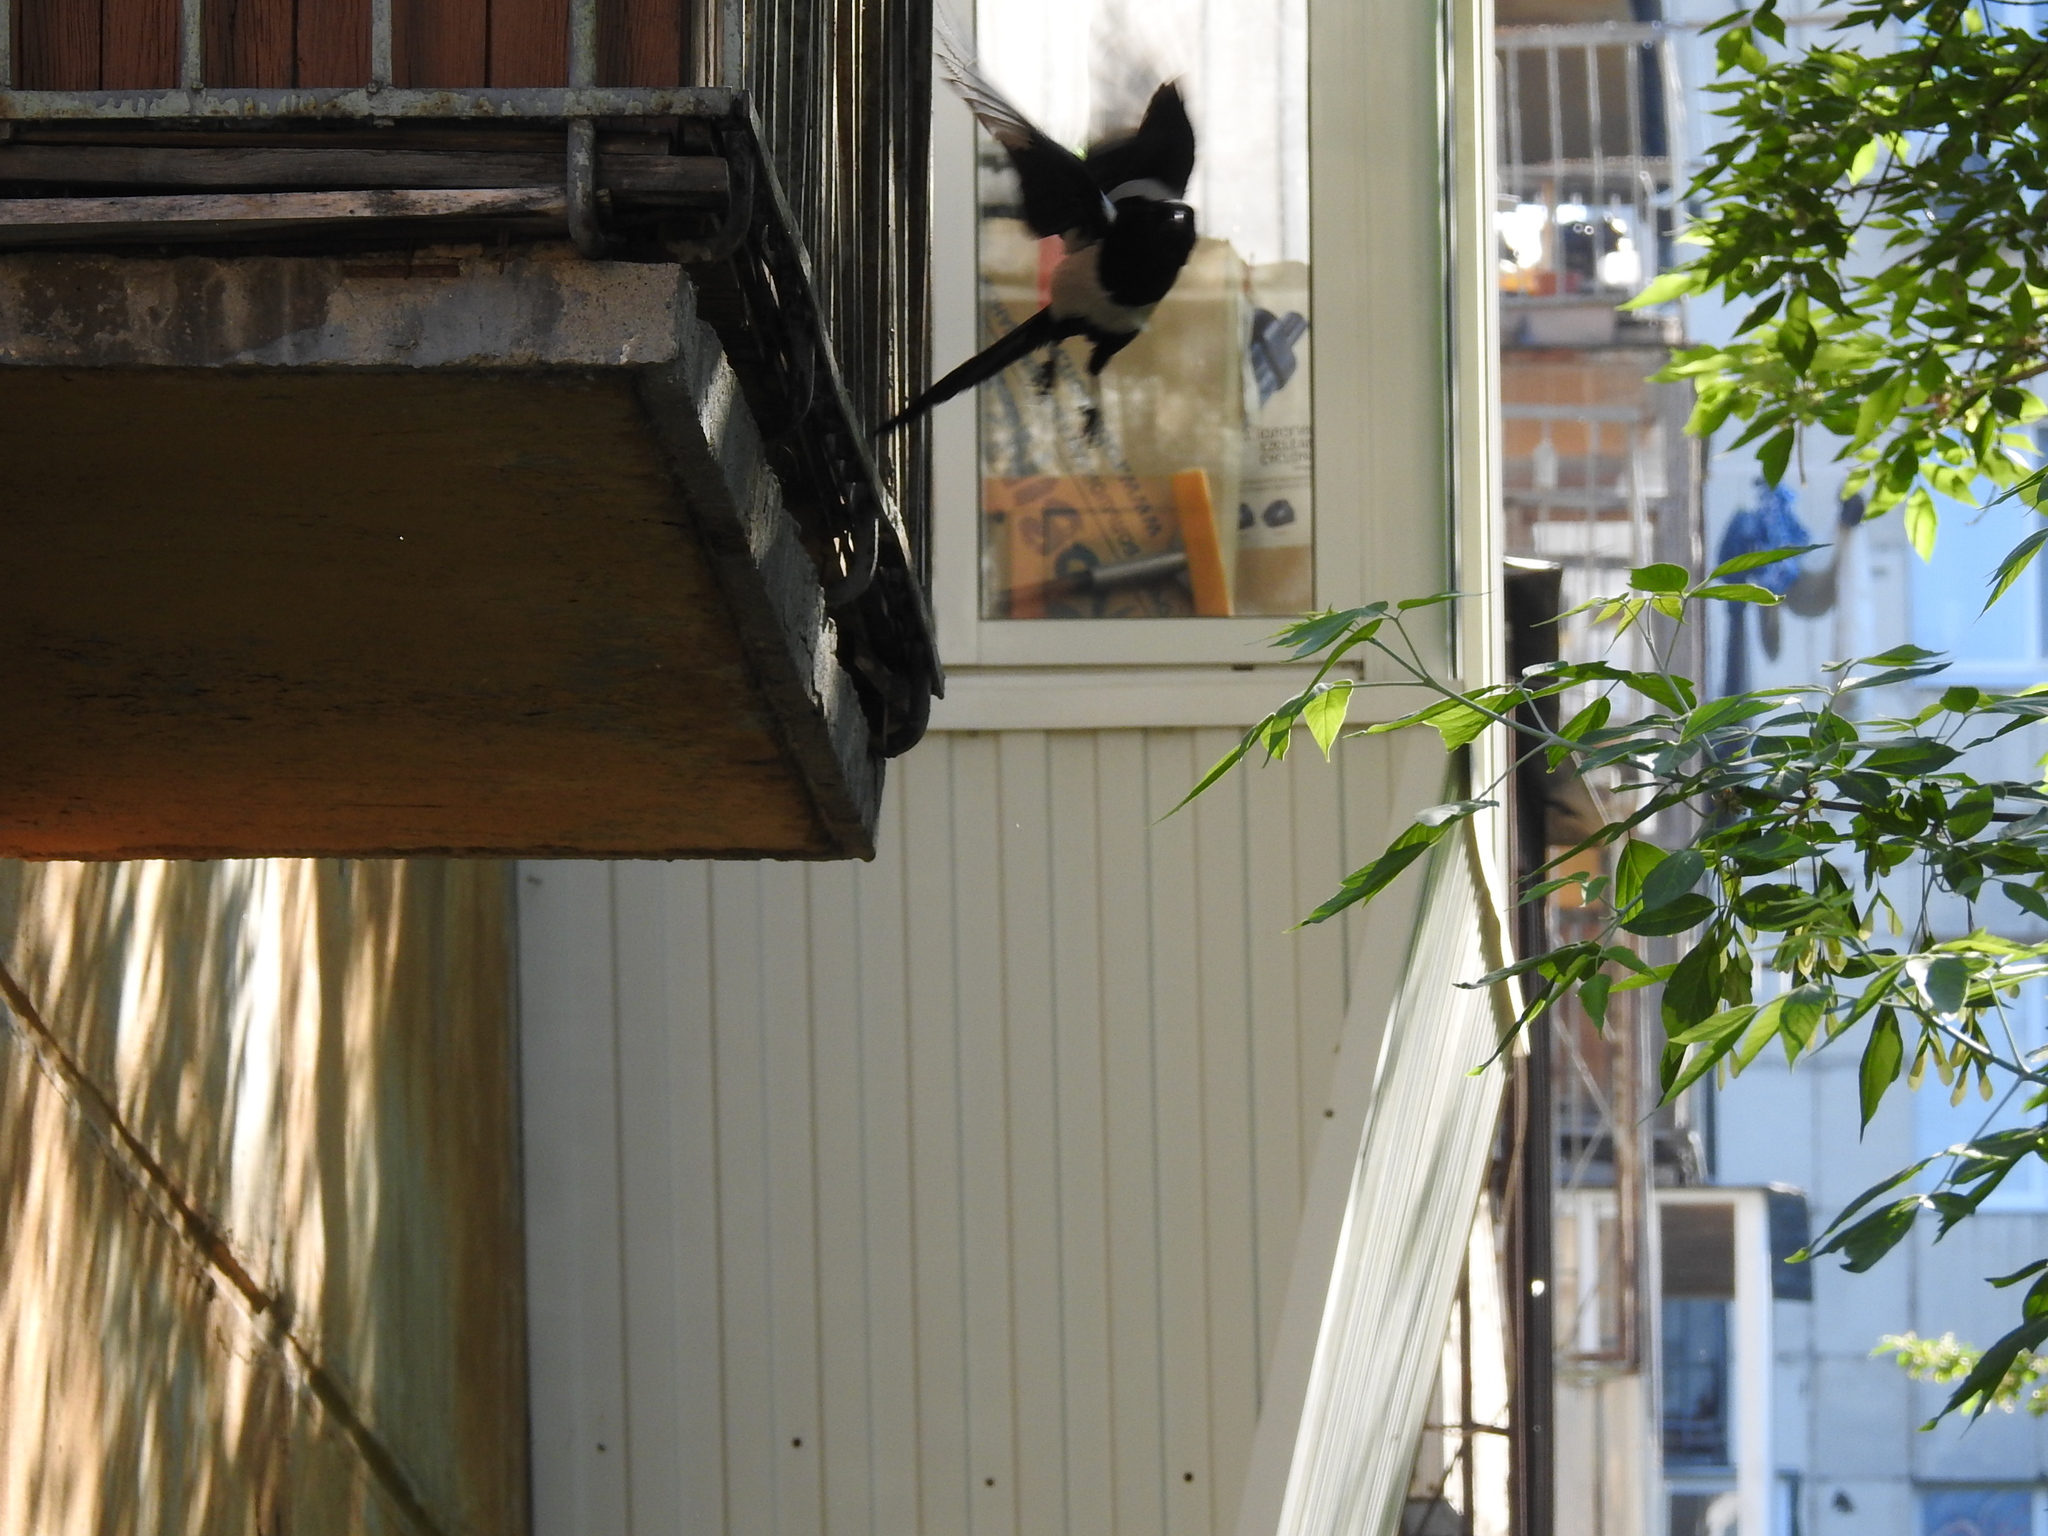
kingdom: Animalia
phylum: Chordata
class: Aves
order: Passeriformes
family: Corvidae
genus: Pica
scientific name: Pica pica
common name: Eurasian magpie
